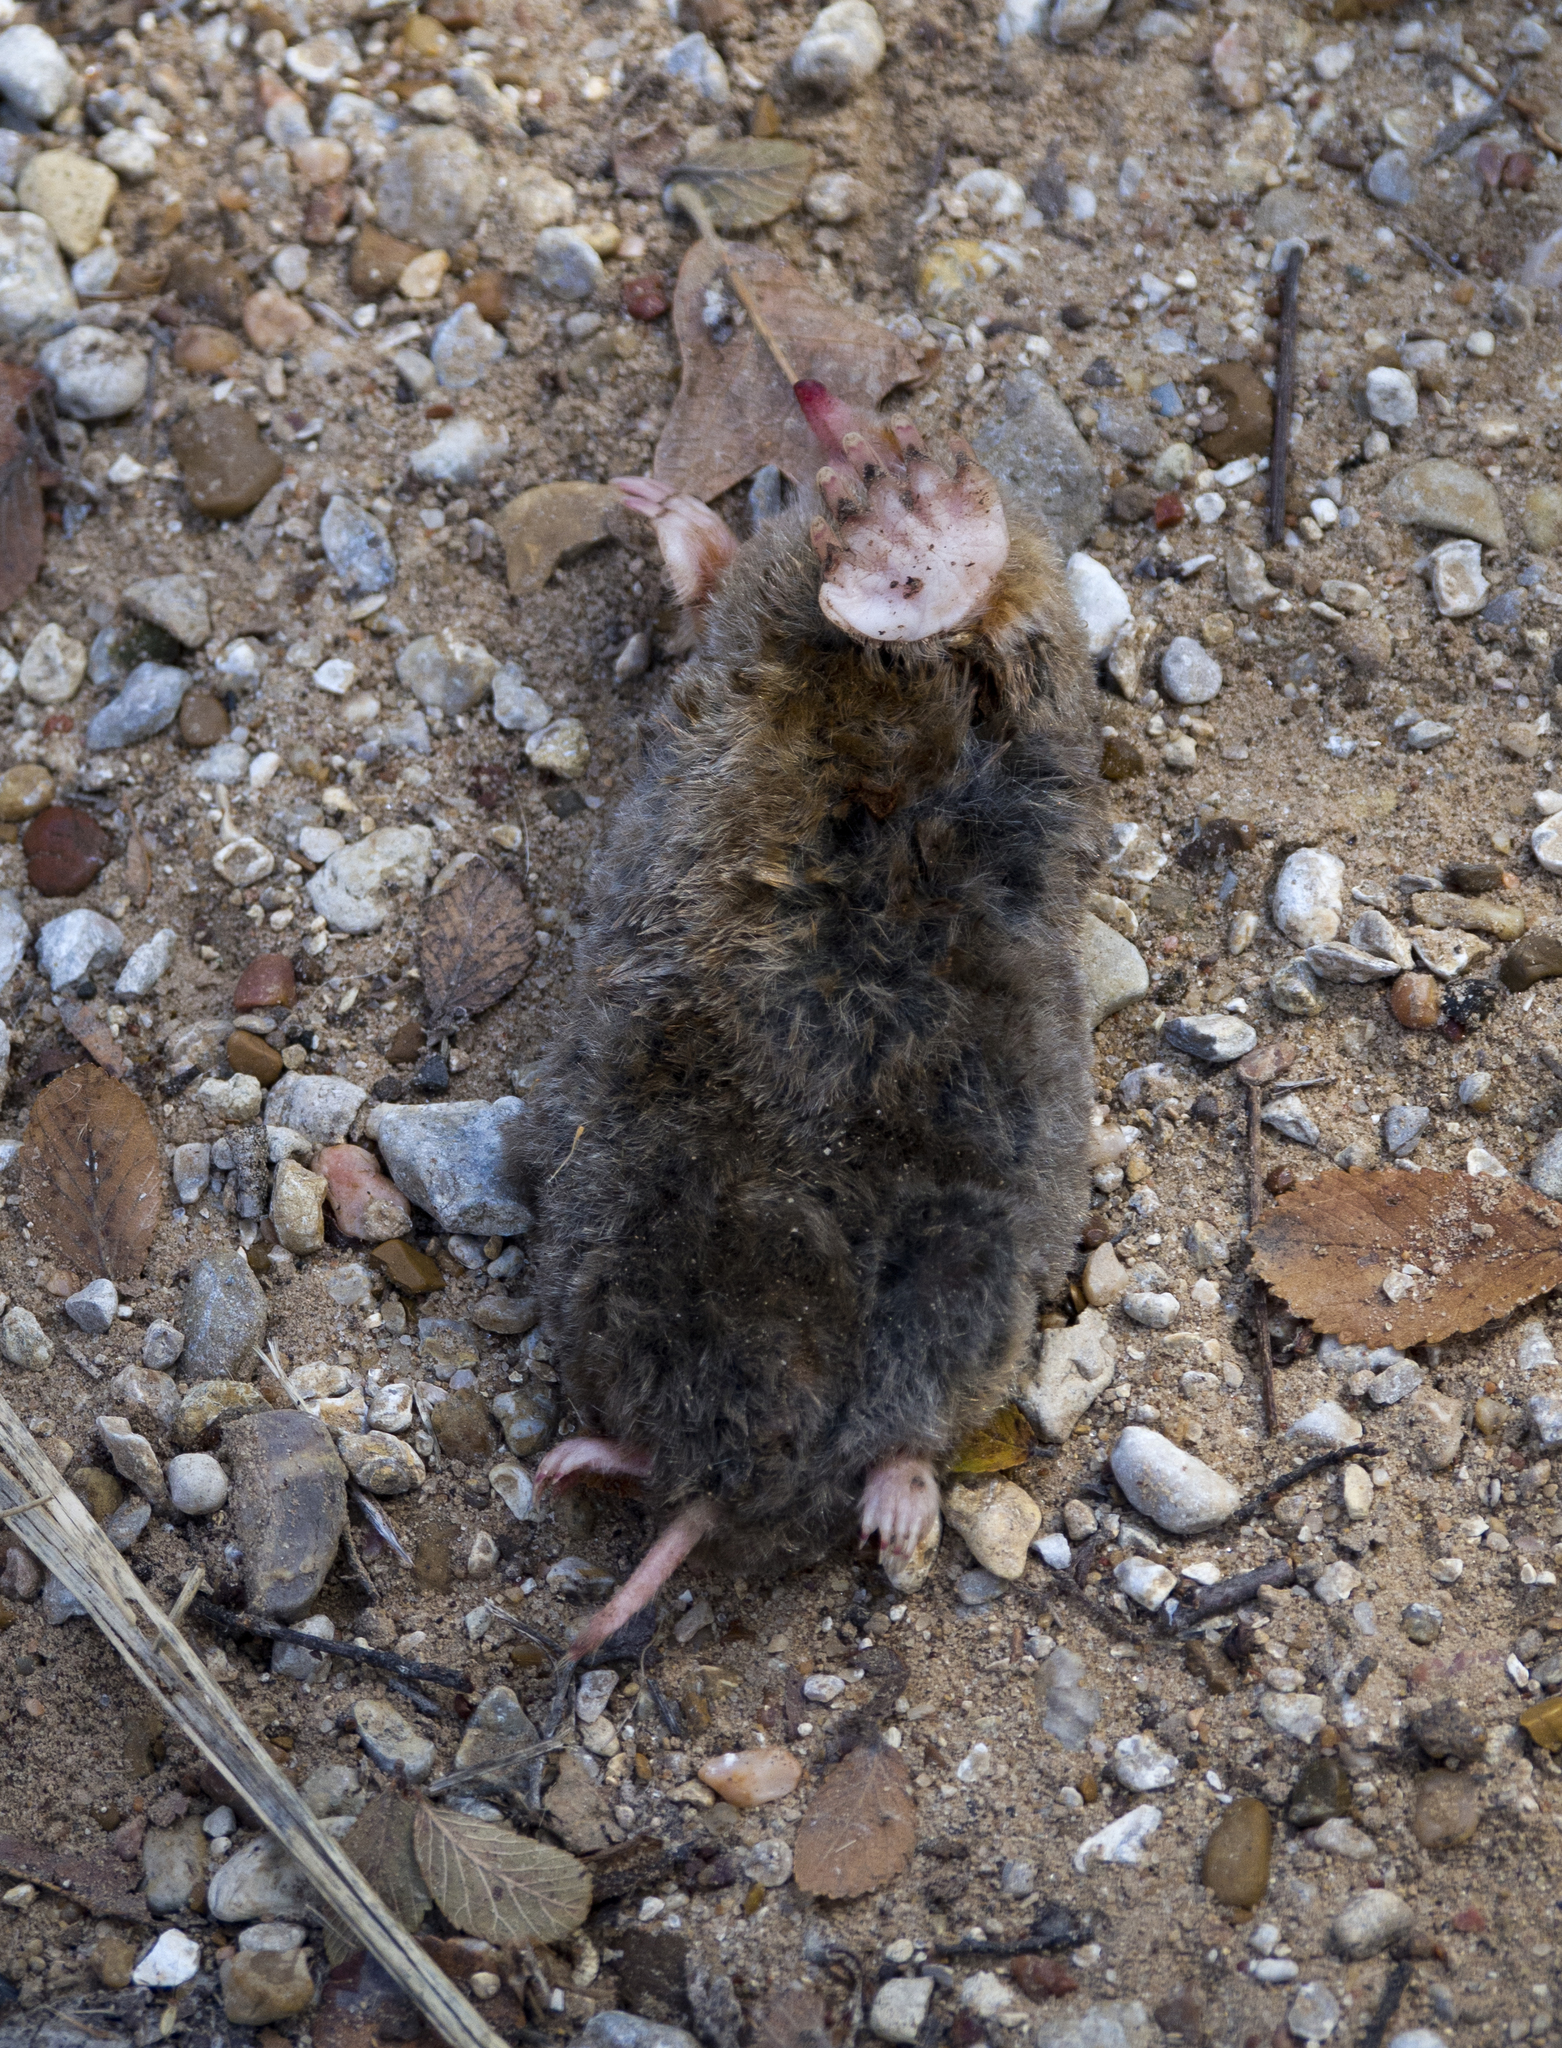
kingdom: Animalia
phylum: Chordata
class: Mammalia
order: Soricomorpha
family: Talpidae
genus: Scalopus
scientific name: Scalopus aquaticus
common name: Eastern mole
